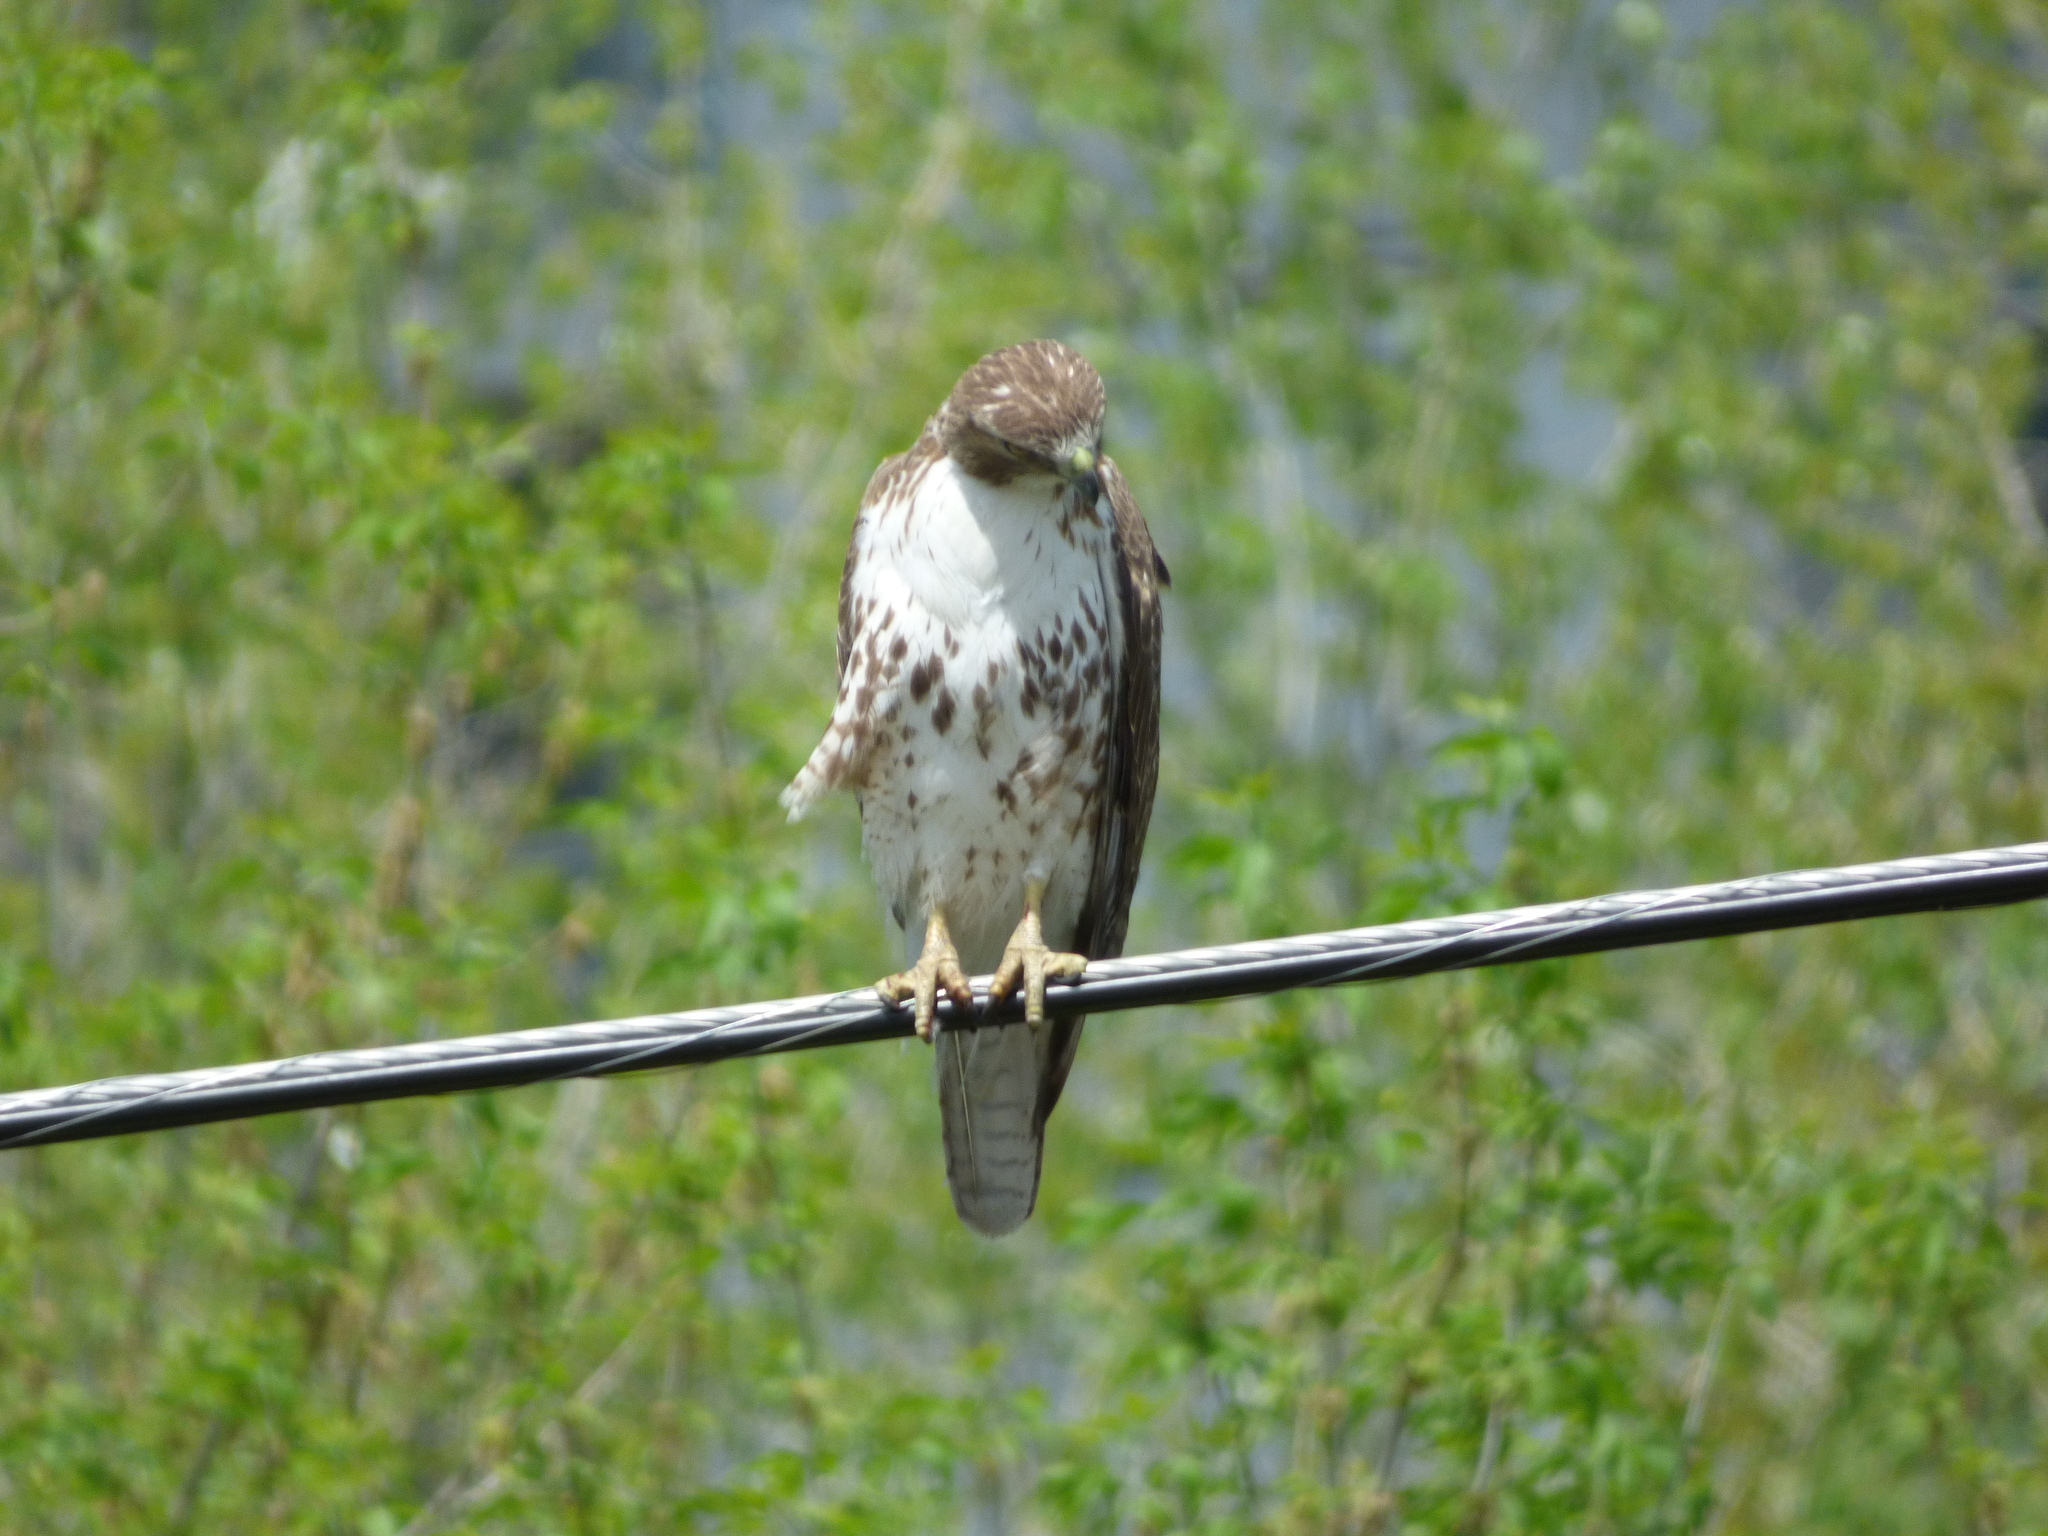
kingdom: Animalia
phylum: Chordata
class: Aves
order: Accipitriformes
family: Accipitridae
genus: Buteo
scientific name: Buteo jamaicensis
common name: Red-tailed hawk
